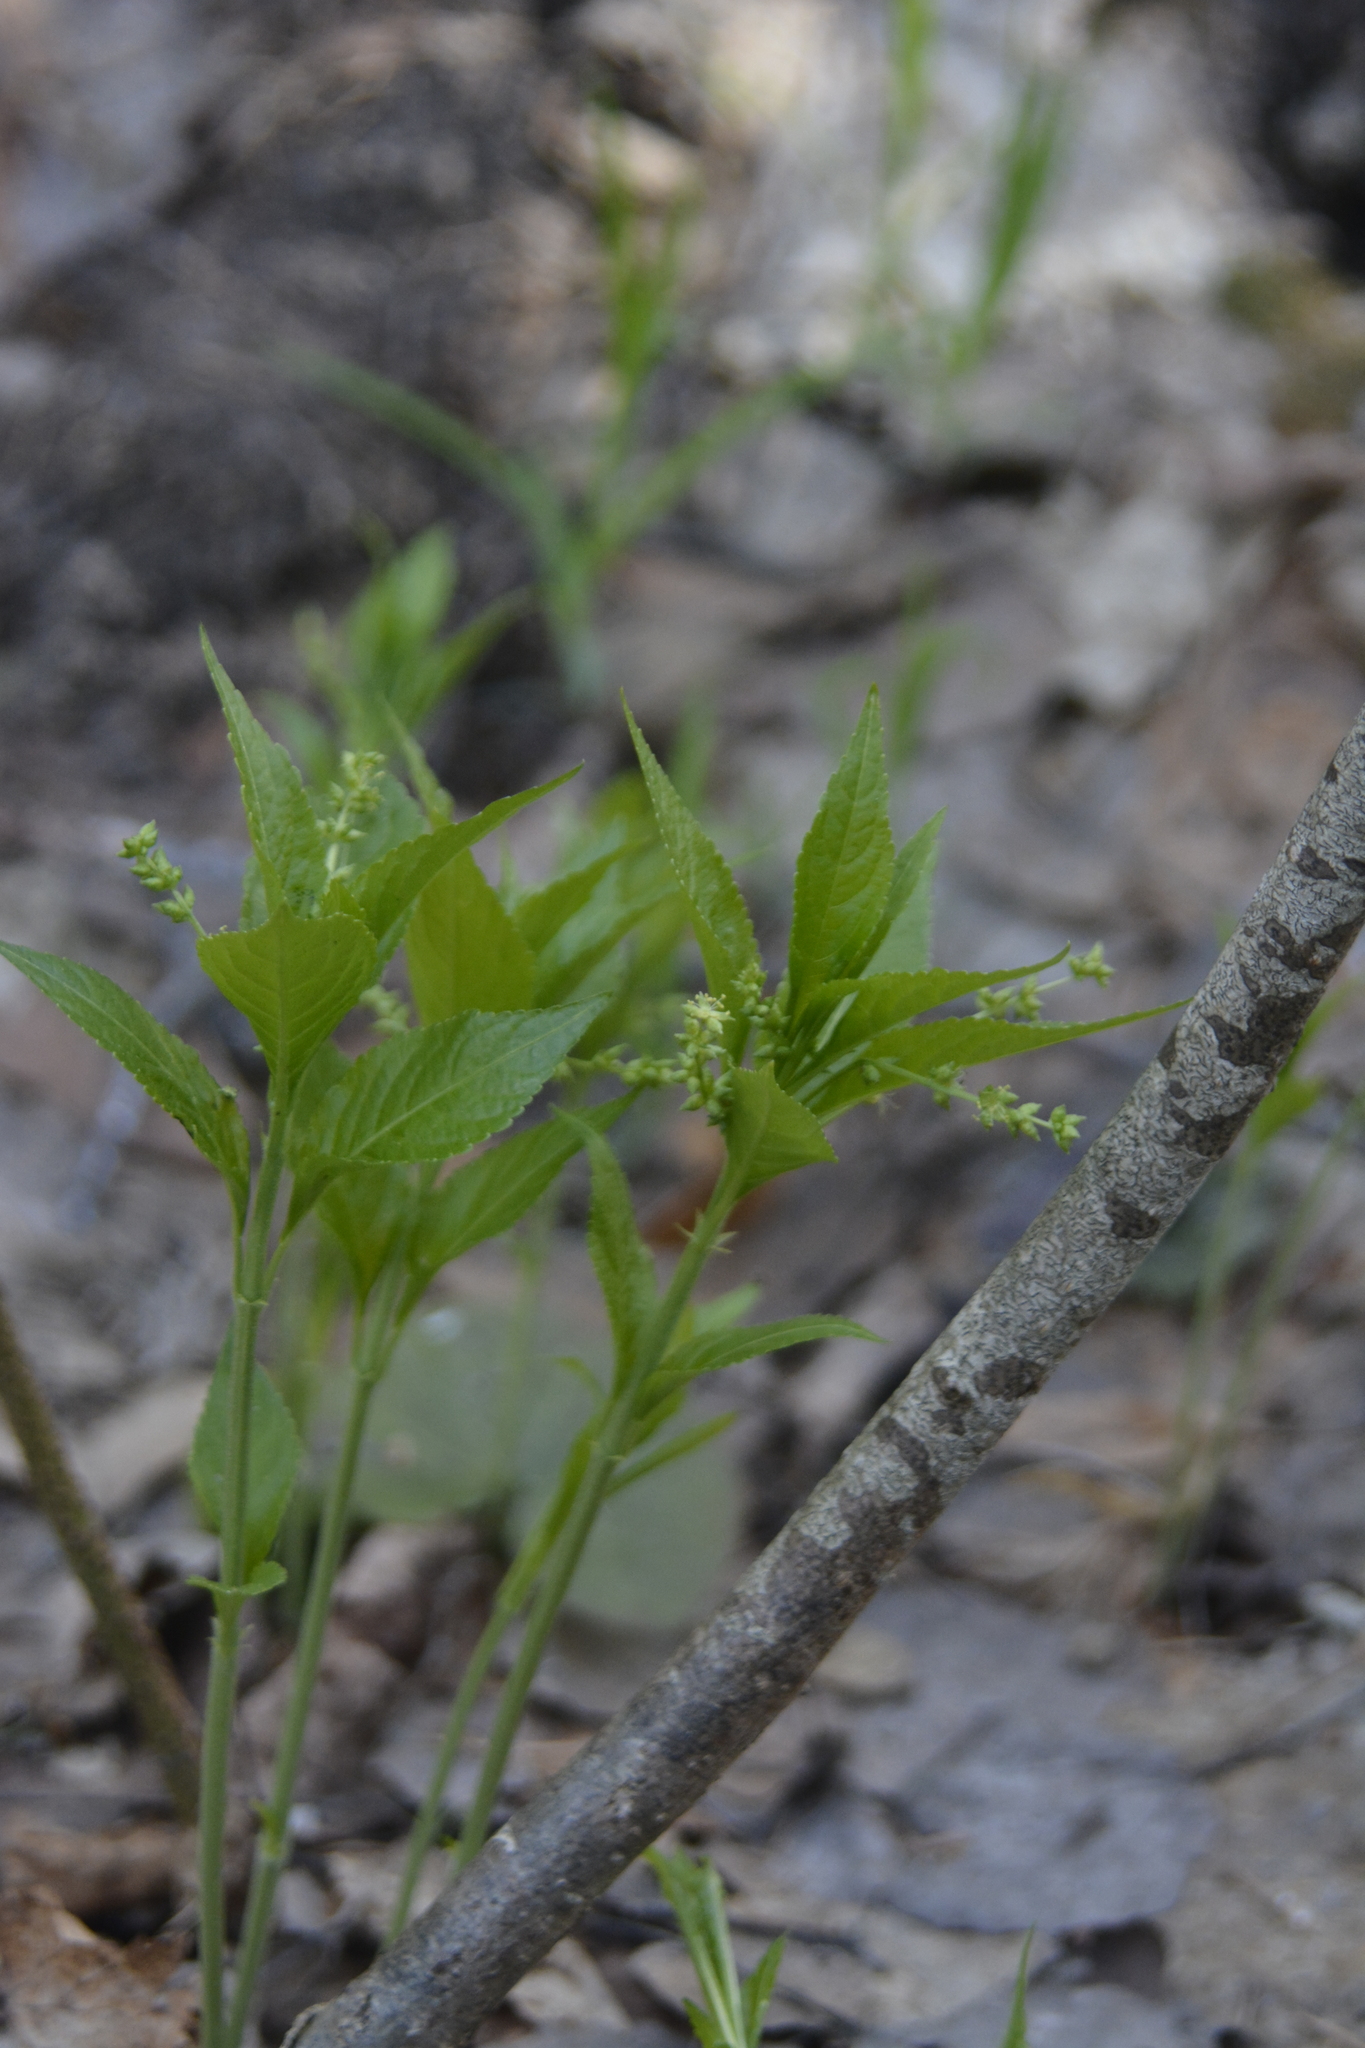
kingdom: Plantae
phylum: Tracheophyta
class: Magnoliopsida
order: Malpighiales
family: Euphorbiaceae
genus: Mercurialis
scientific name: Mercurialis perennis
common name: Dog mercury
